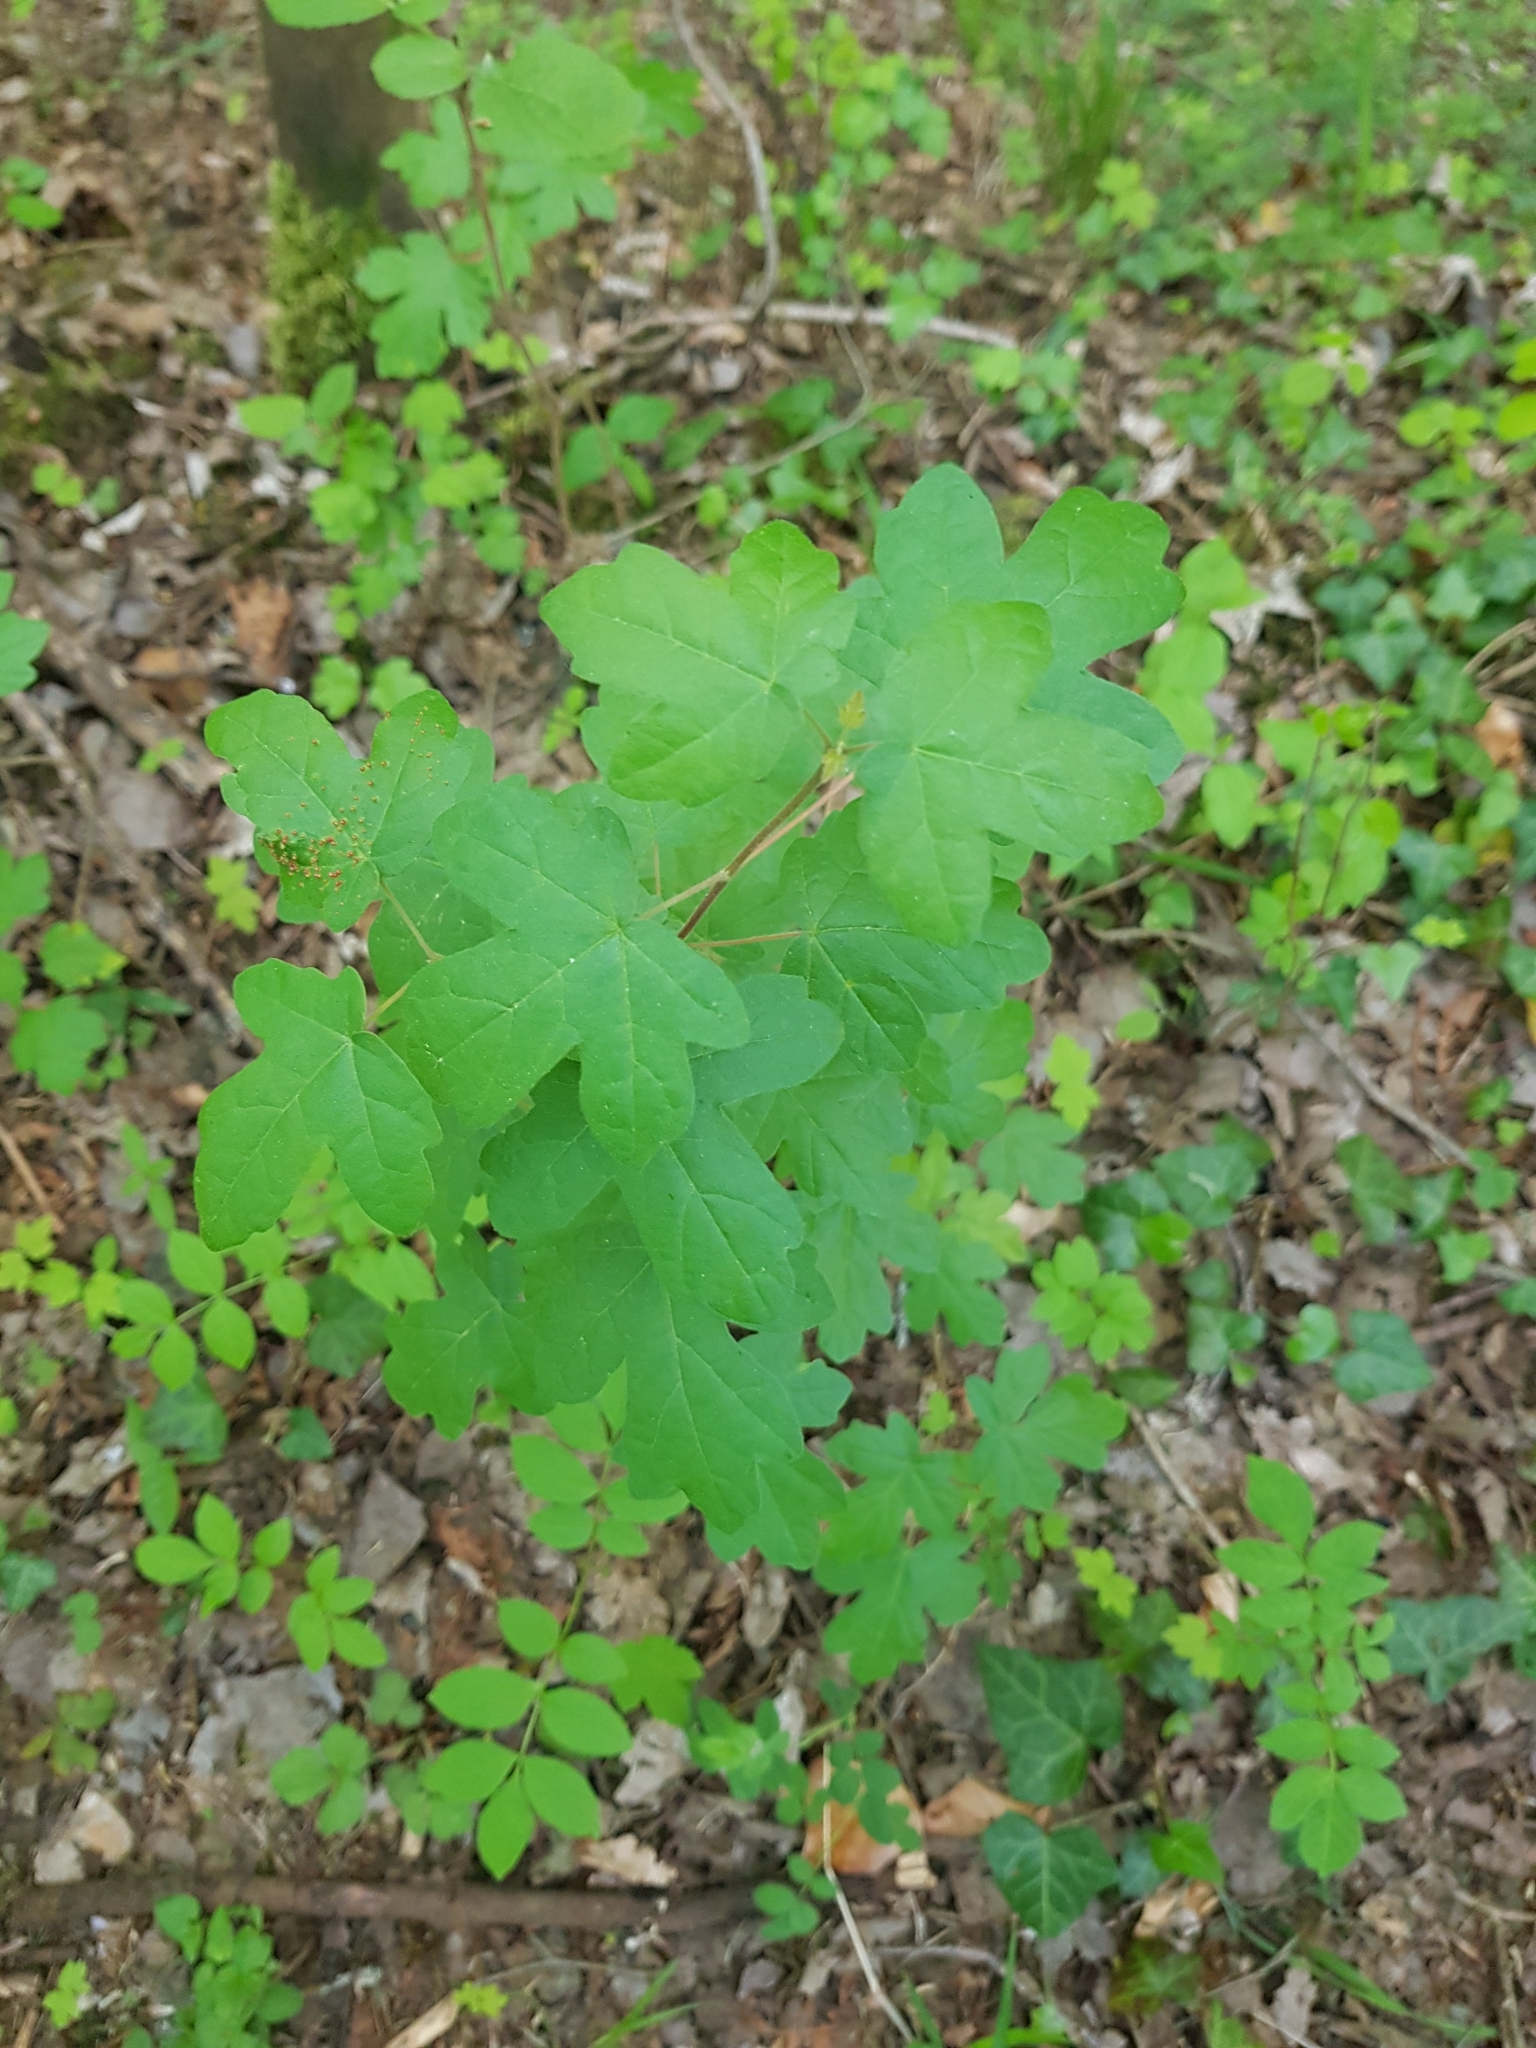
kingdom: Plantae
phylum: Tracheophyta
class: Magnoliopsida
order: Sapindales
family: Sapindaceae
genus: Acer
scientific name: Acer campestre
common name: Field maple
